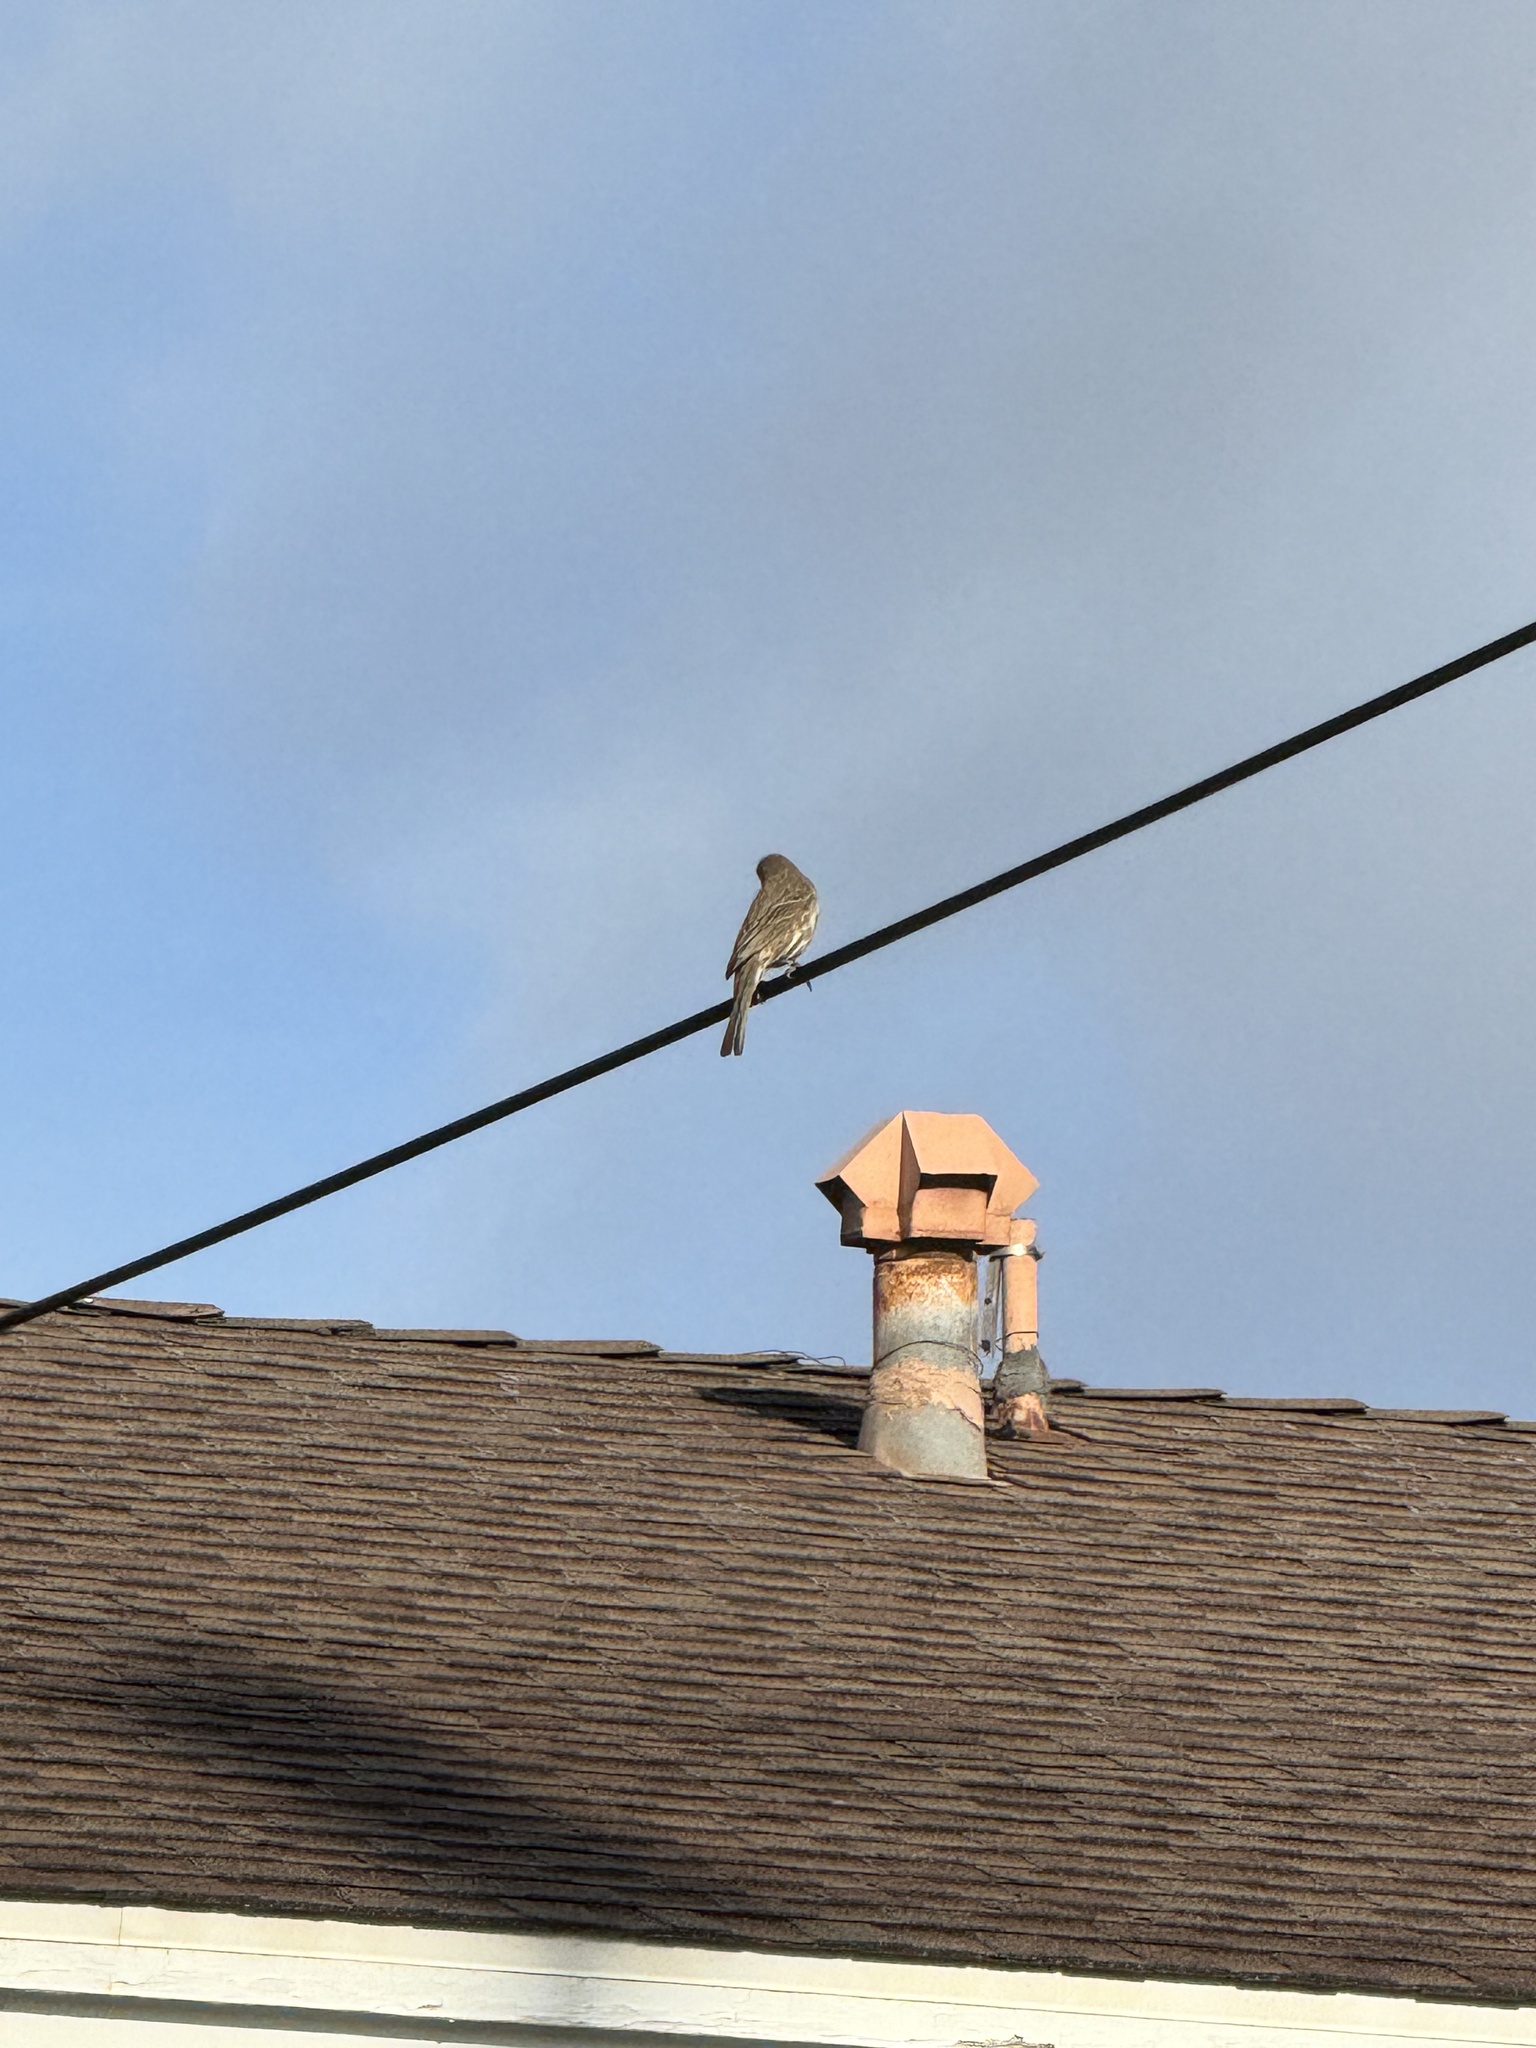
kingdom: Animalia
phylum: Chordata
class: Aves
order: Passeriformes
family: Fringillidae
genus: Haemorhous
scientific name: Haemorhous mexicanus
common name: House finch
